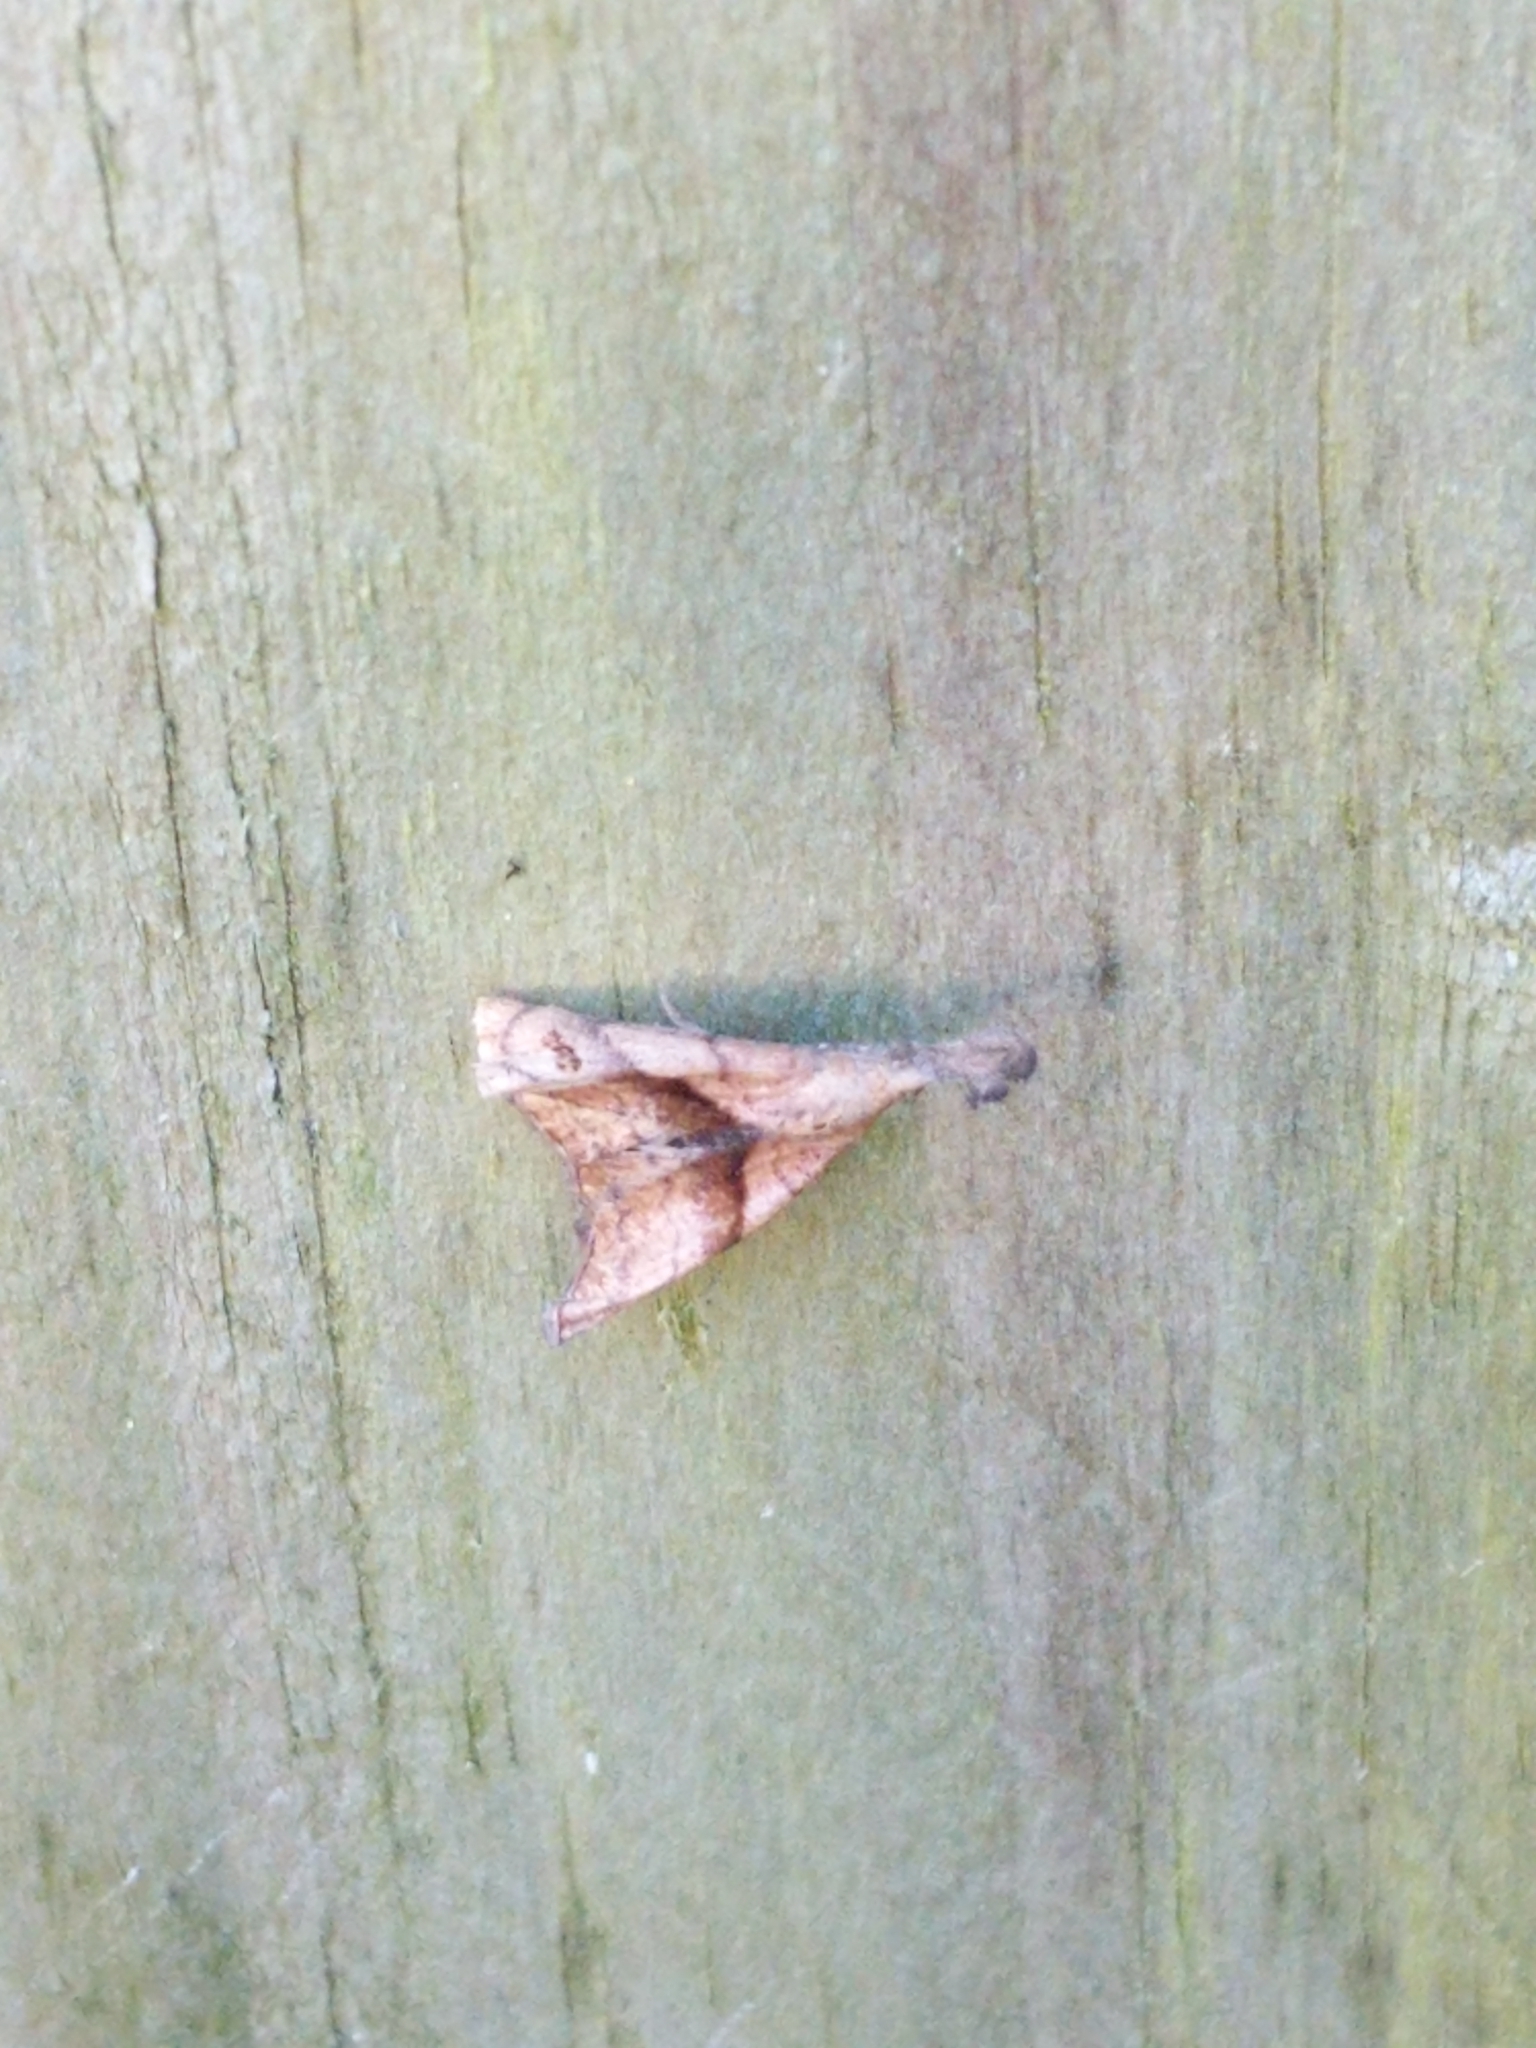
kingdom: Animalia
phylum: Arthropoda
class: Insecta
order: Lepidoptera
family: Erebidae
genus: Palthis
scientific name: Palthis angulalis
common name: Dark-spotted palthis moth
